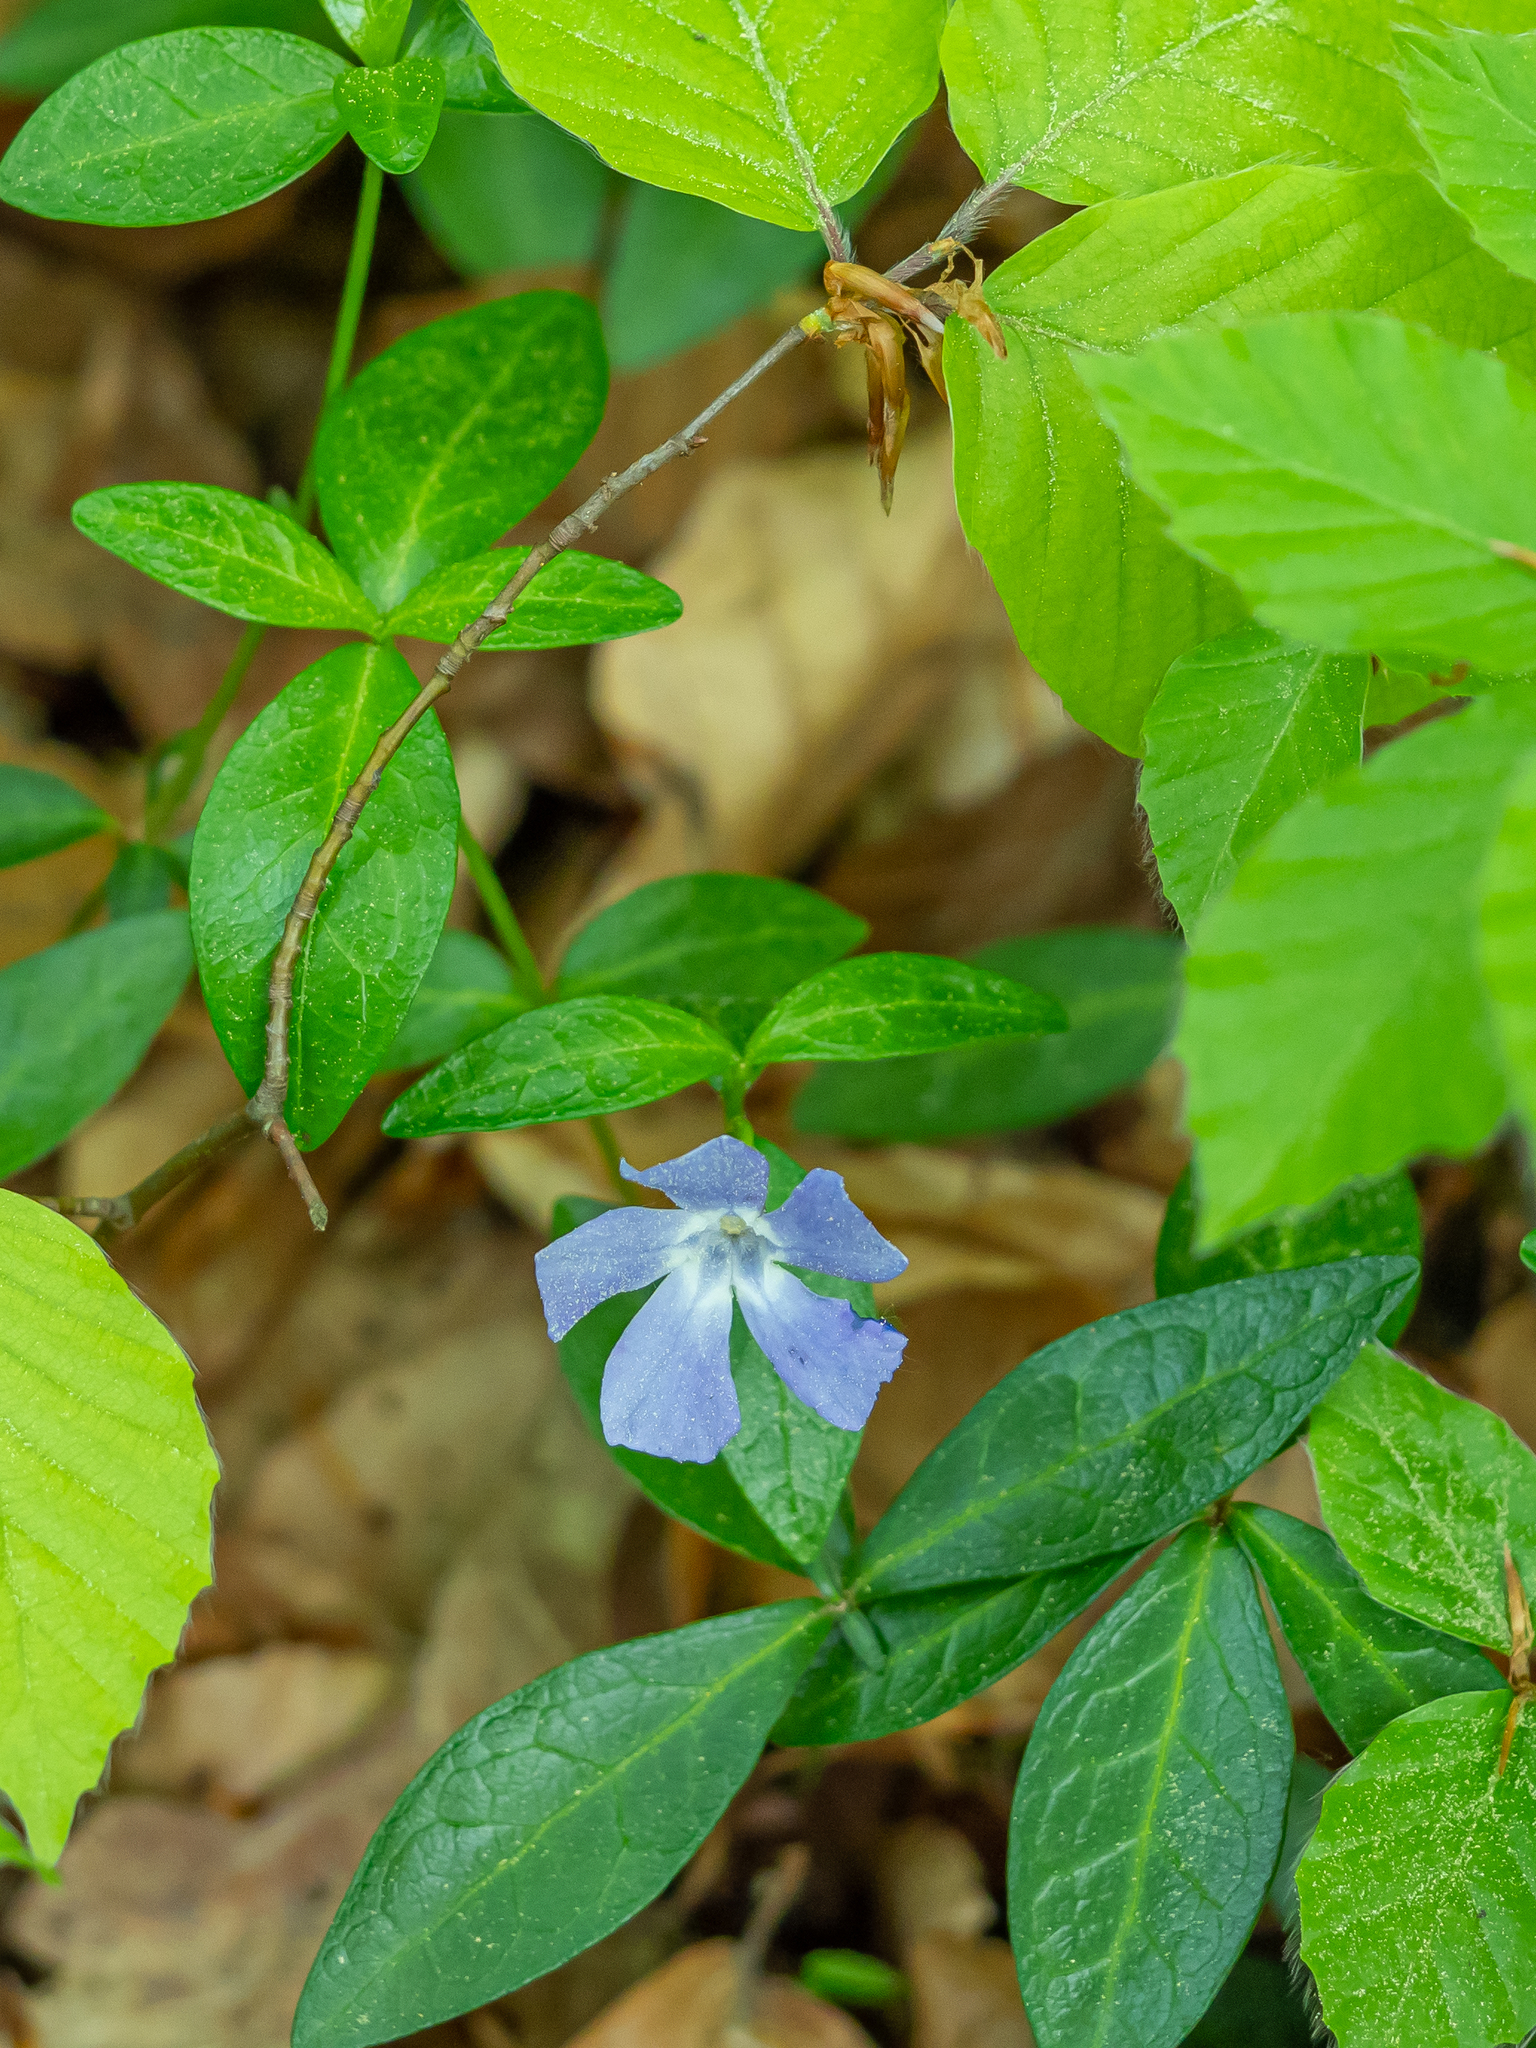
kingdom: Plantae
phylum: Tracheophyta
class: Magnoliopsida
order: Gentianales
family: Apocynaceae
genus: Vinca
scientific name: Vinca minor
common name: Lesser periwinkle
